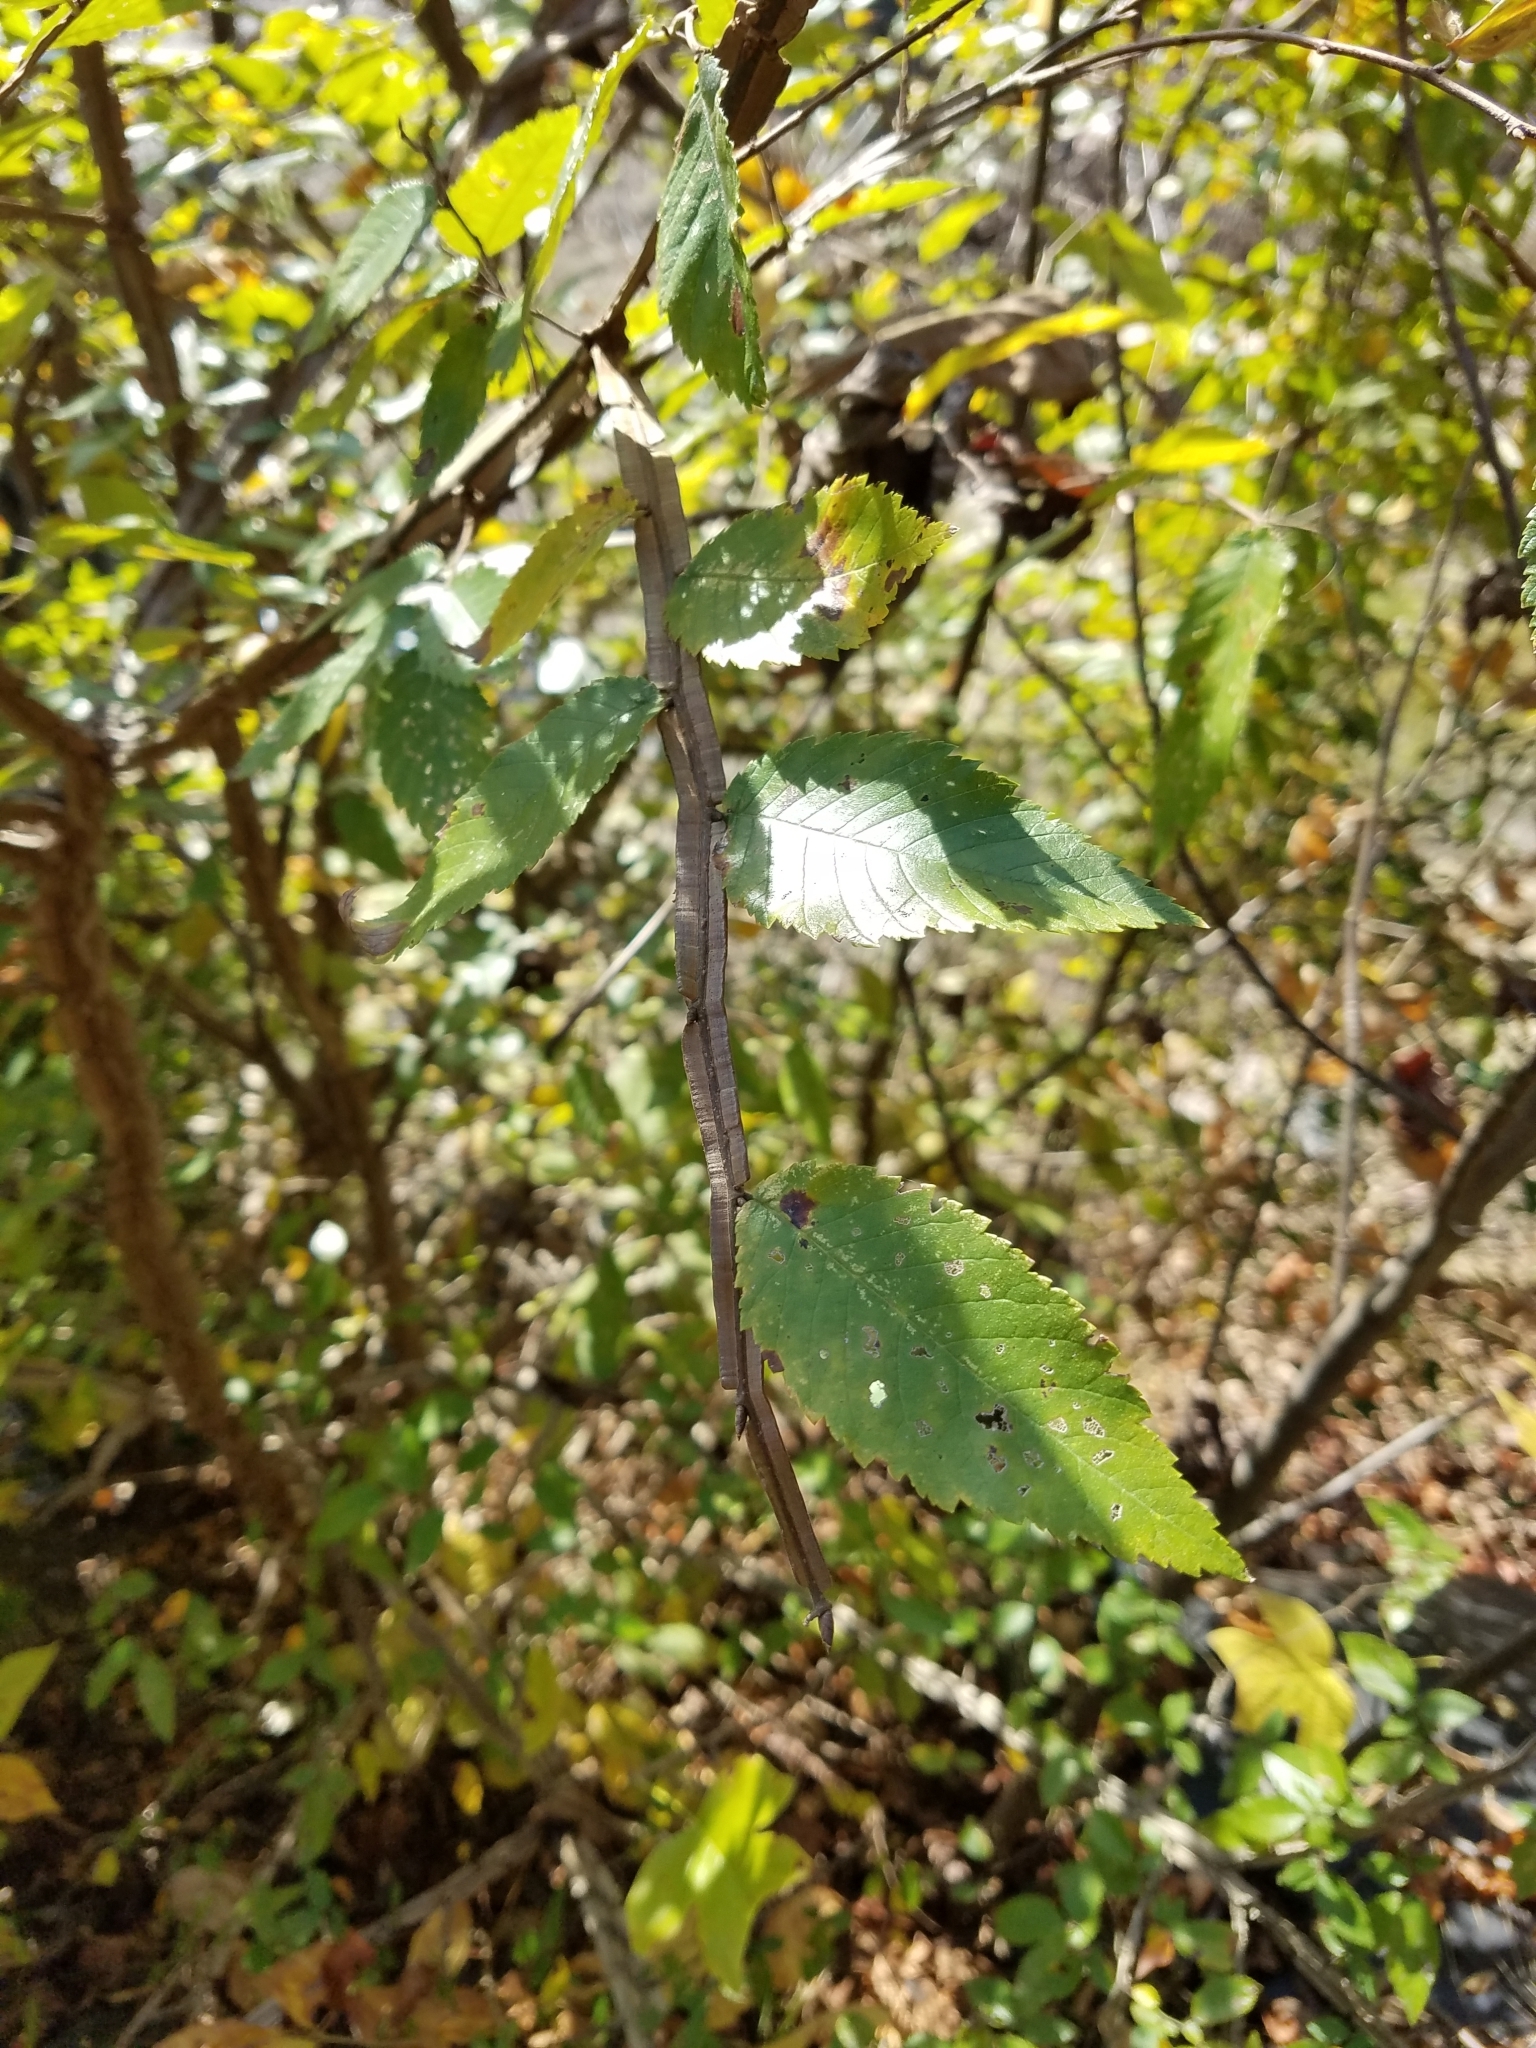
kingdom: Plantae
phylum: Tracheophyta
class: Magnoliopsida
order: Rosales
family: Ulmaceae
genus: Ulmus
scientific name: Ulmus alata
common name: Winged elm
